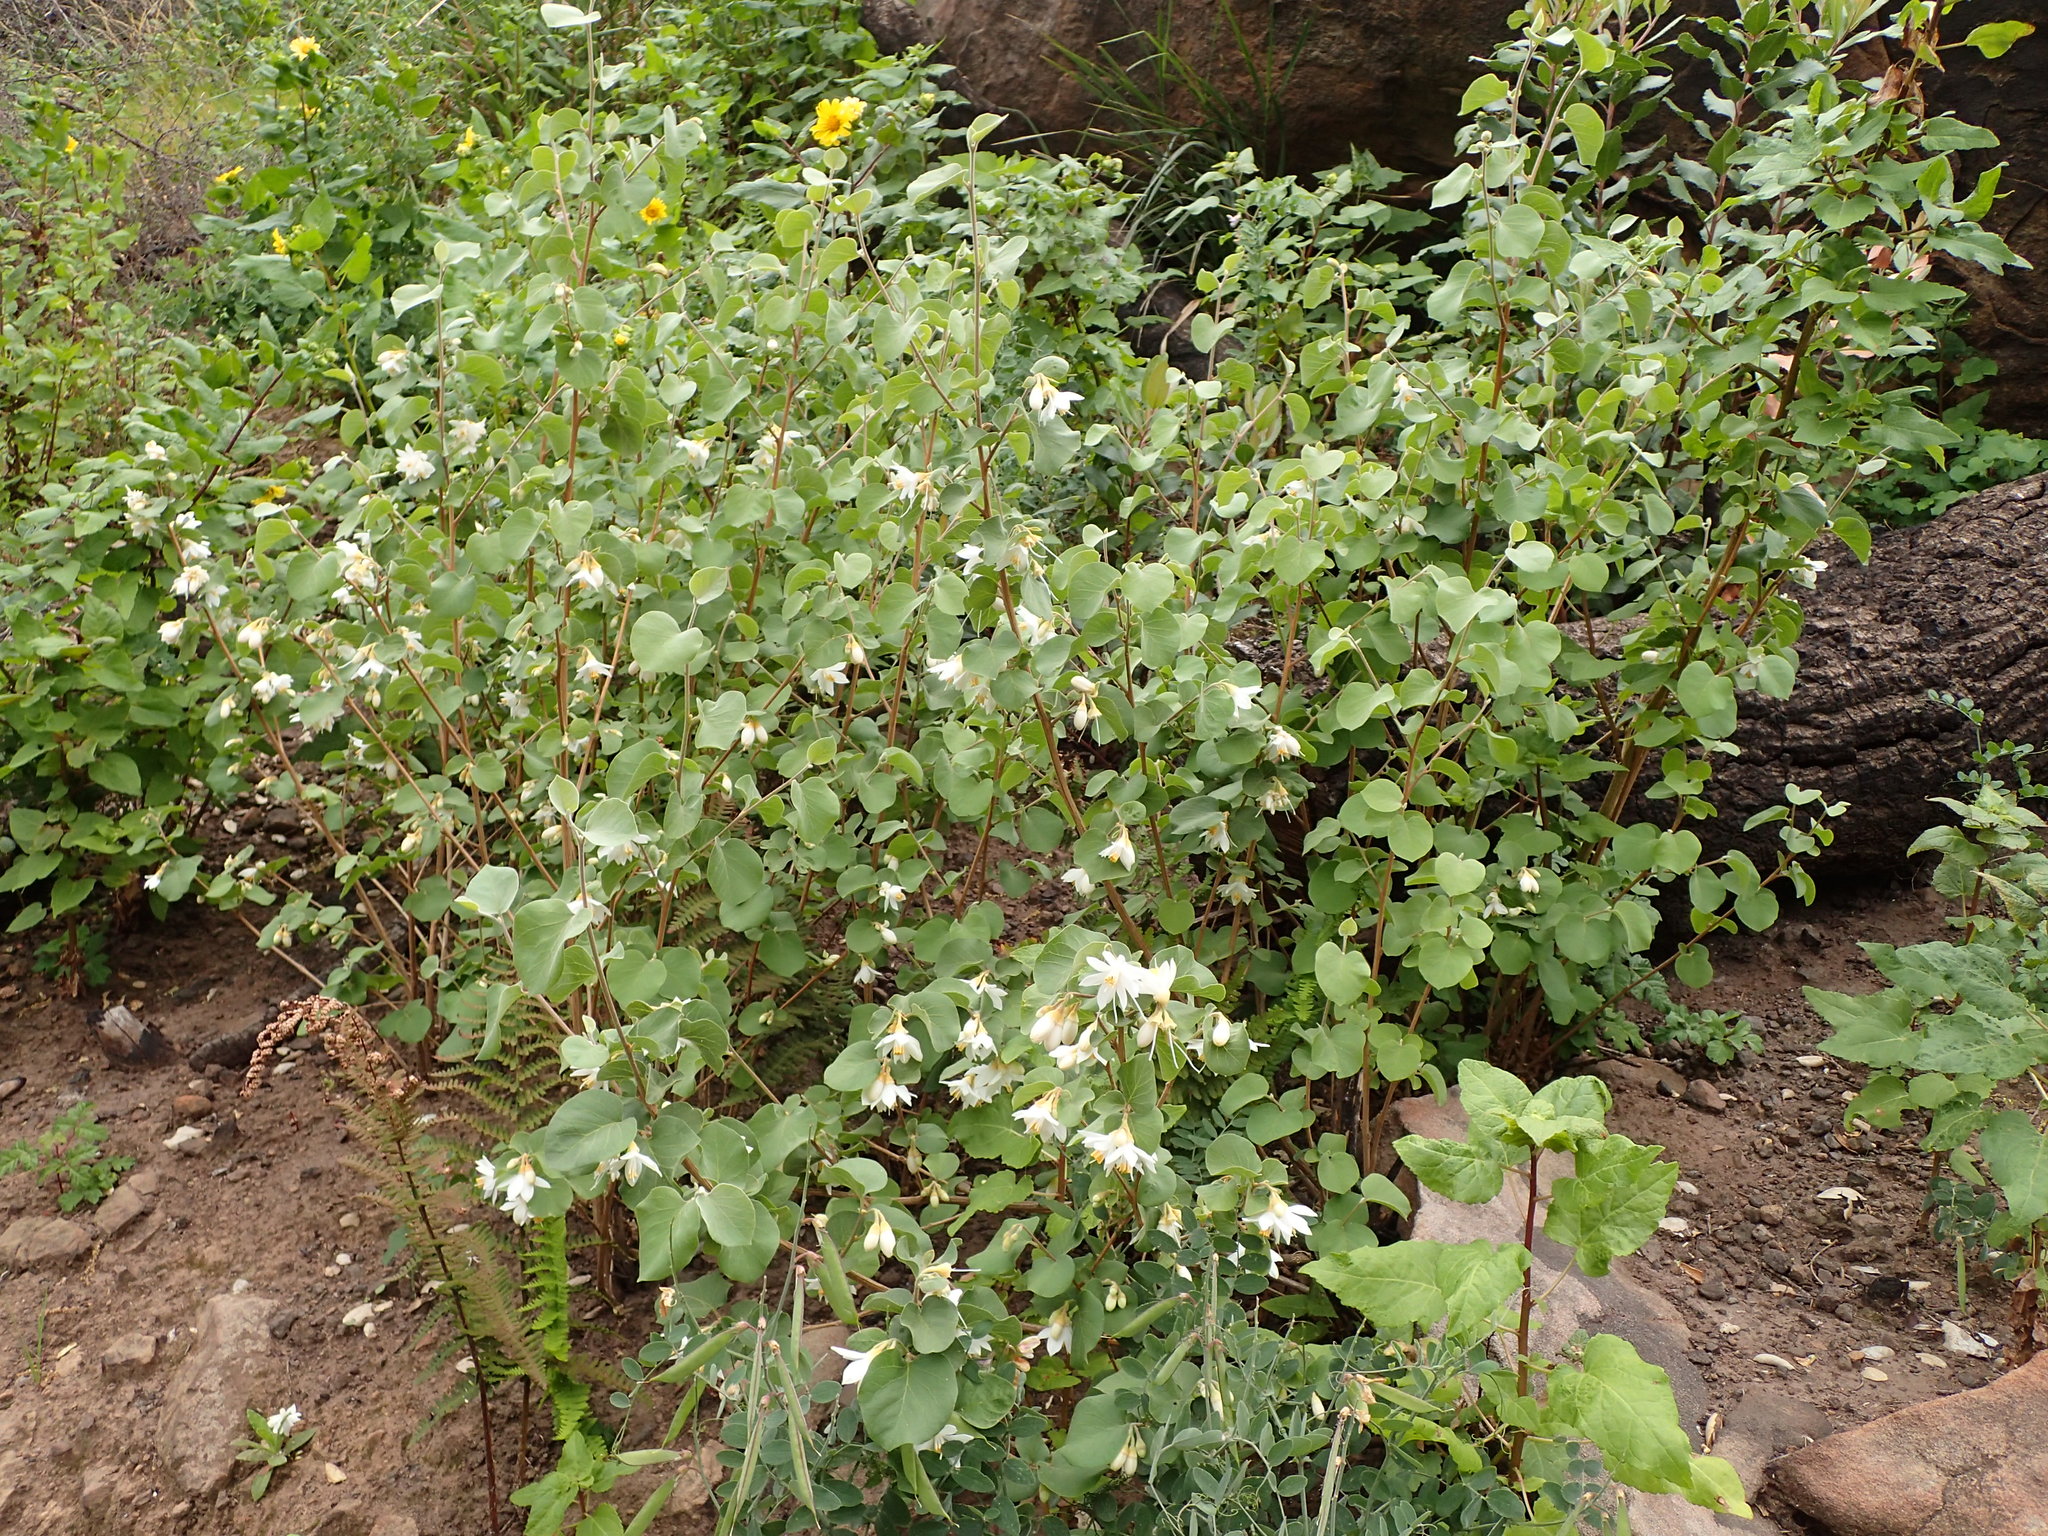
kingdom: Plantae
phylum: Tracheophyta
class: Magnoliopsida
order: Ericales
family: Styracaceae
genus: Styrax
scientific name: Styrax redivivus
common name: California styrax
